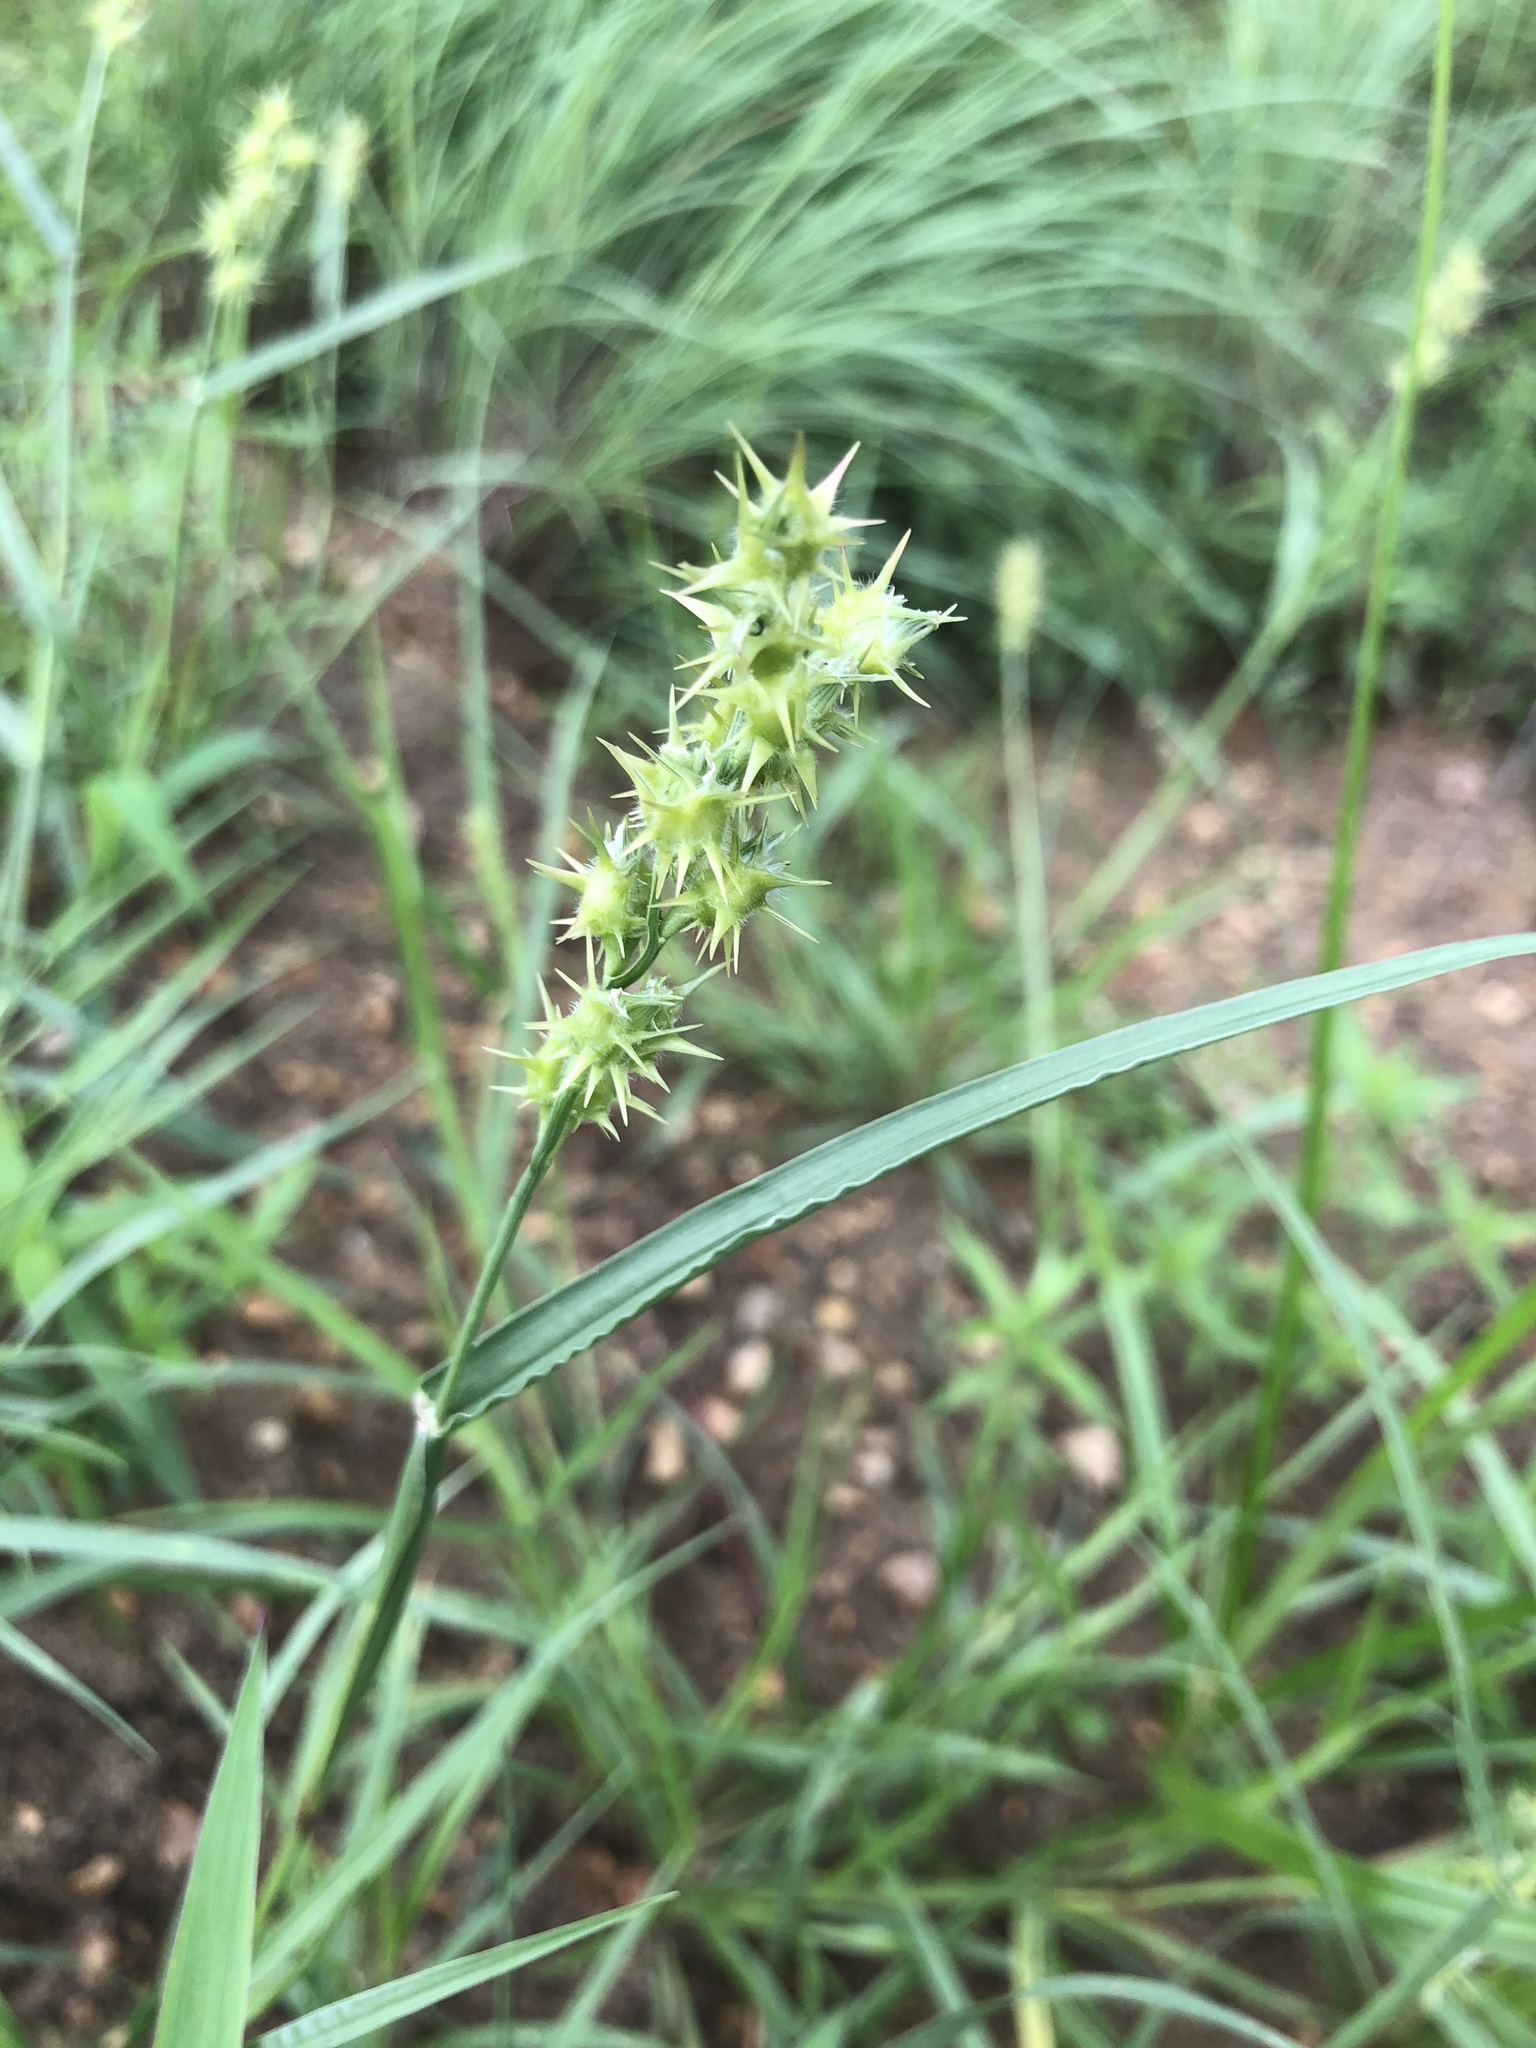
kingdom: Plantae
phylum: Tracheophyta
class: Liliopsida
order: Poales
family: Poaceae
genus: Cenchrus
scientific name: Cenchrus spinifex
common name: Coast sandbur
